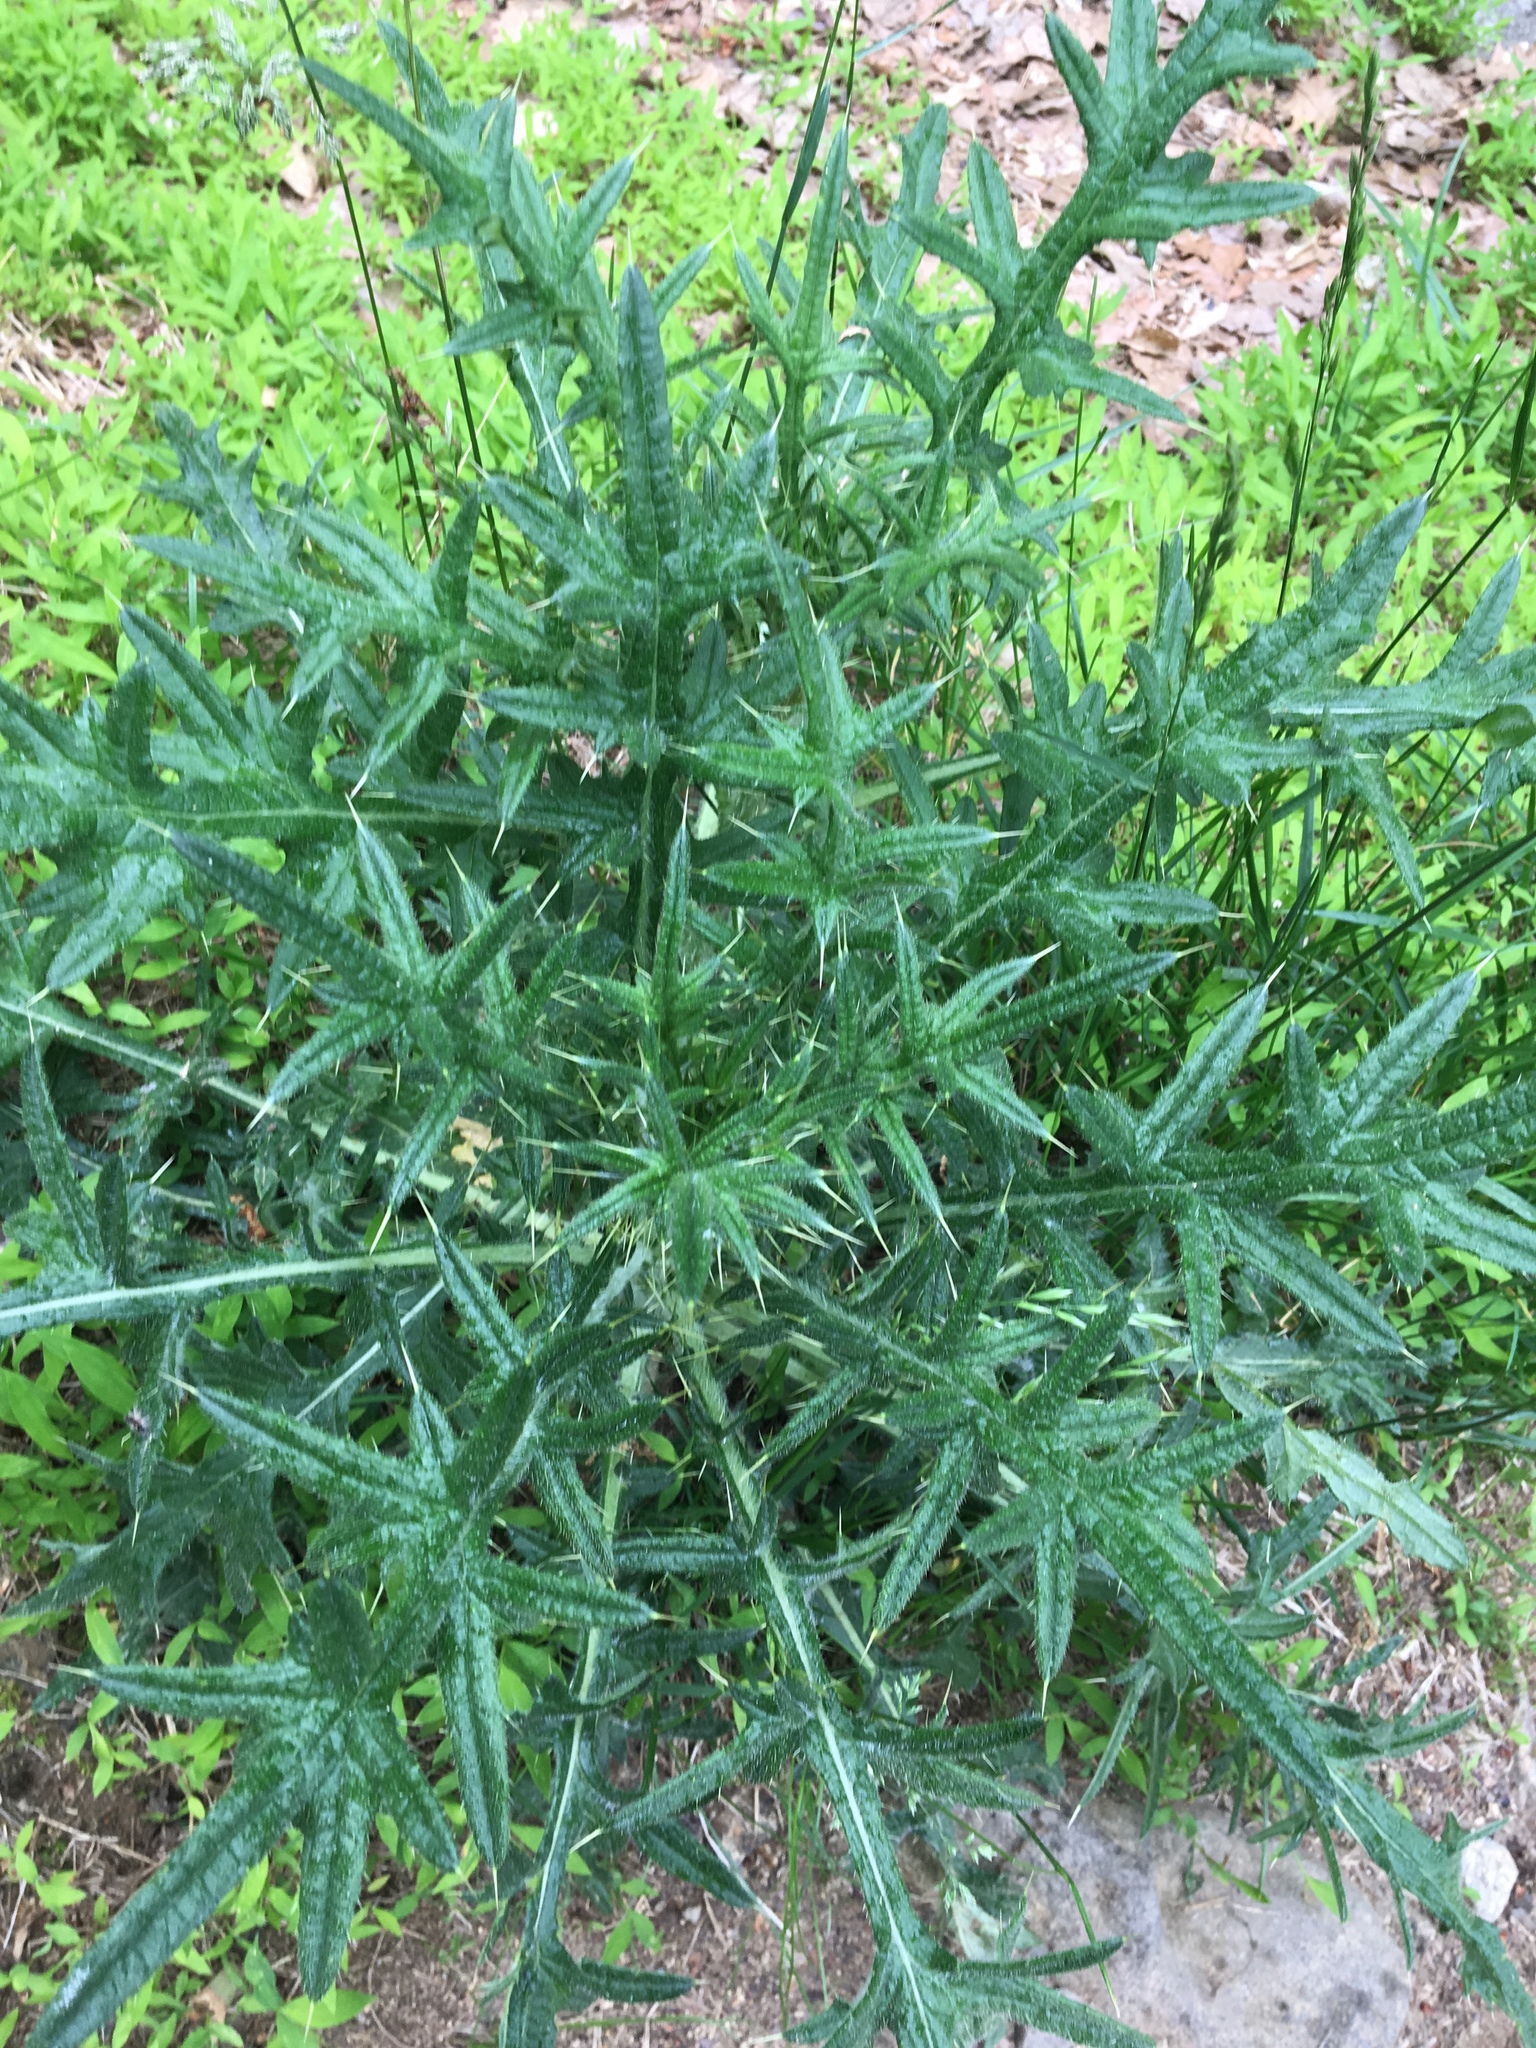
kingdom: Plantae
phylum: Tracheophyta
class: Magnoliopsida
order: Asterales
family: Asteraceae
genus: Cirsium
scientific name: Cirsium vulgare
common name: Bull thistle
